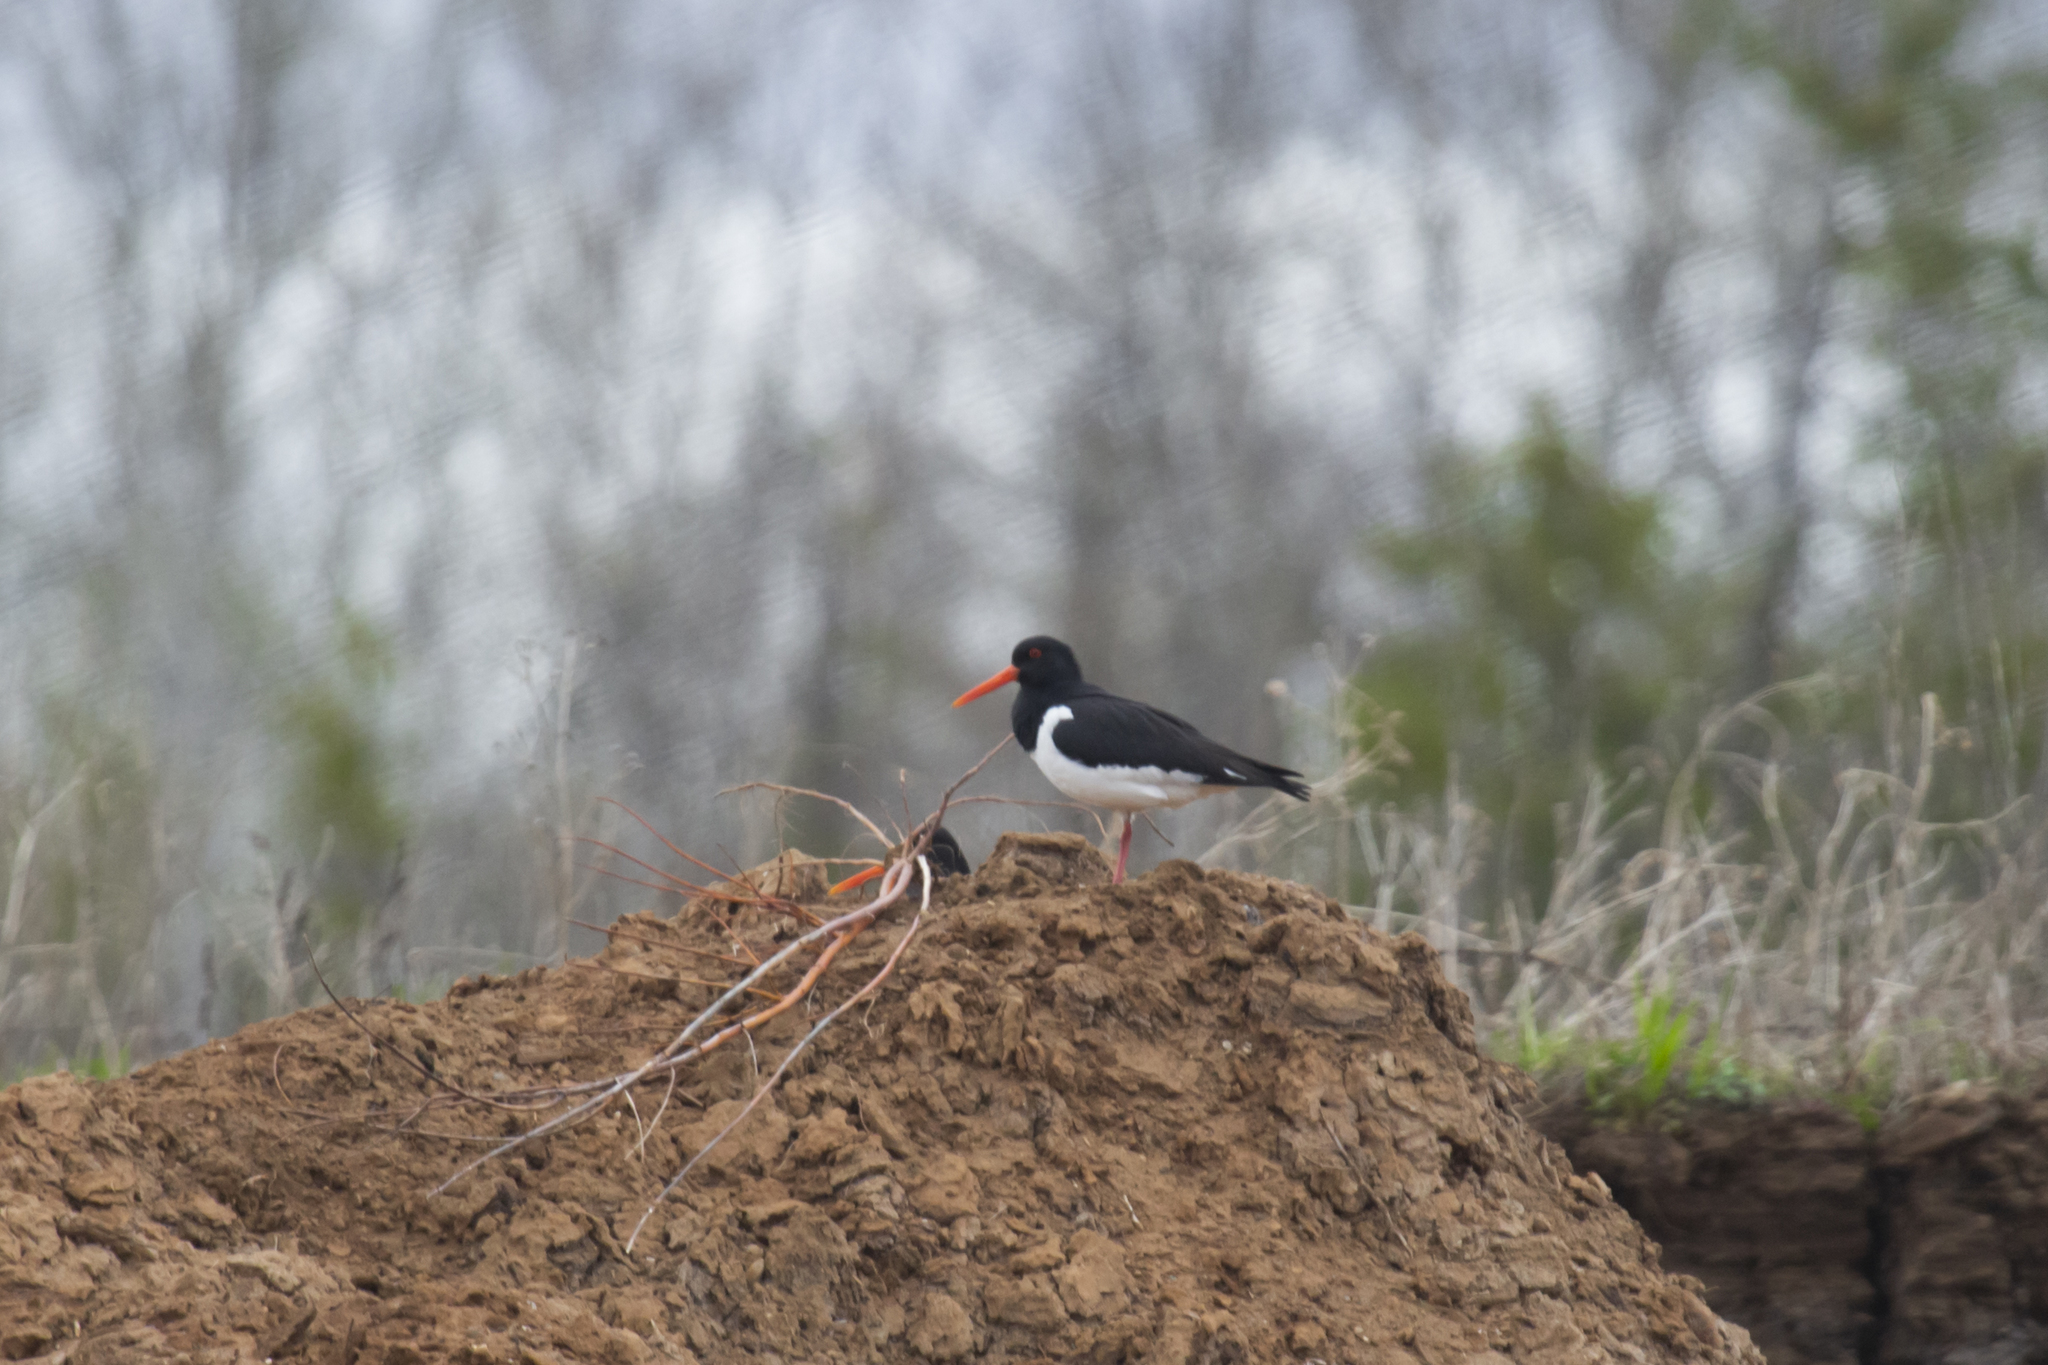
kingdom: Animalia
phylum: Chordata
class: Aves
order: Charadriiformes
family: Haematopodidae
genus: Haematopus
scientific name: Haematopus ostralegus
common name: Eurasian oystercatcher
